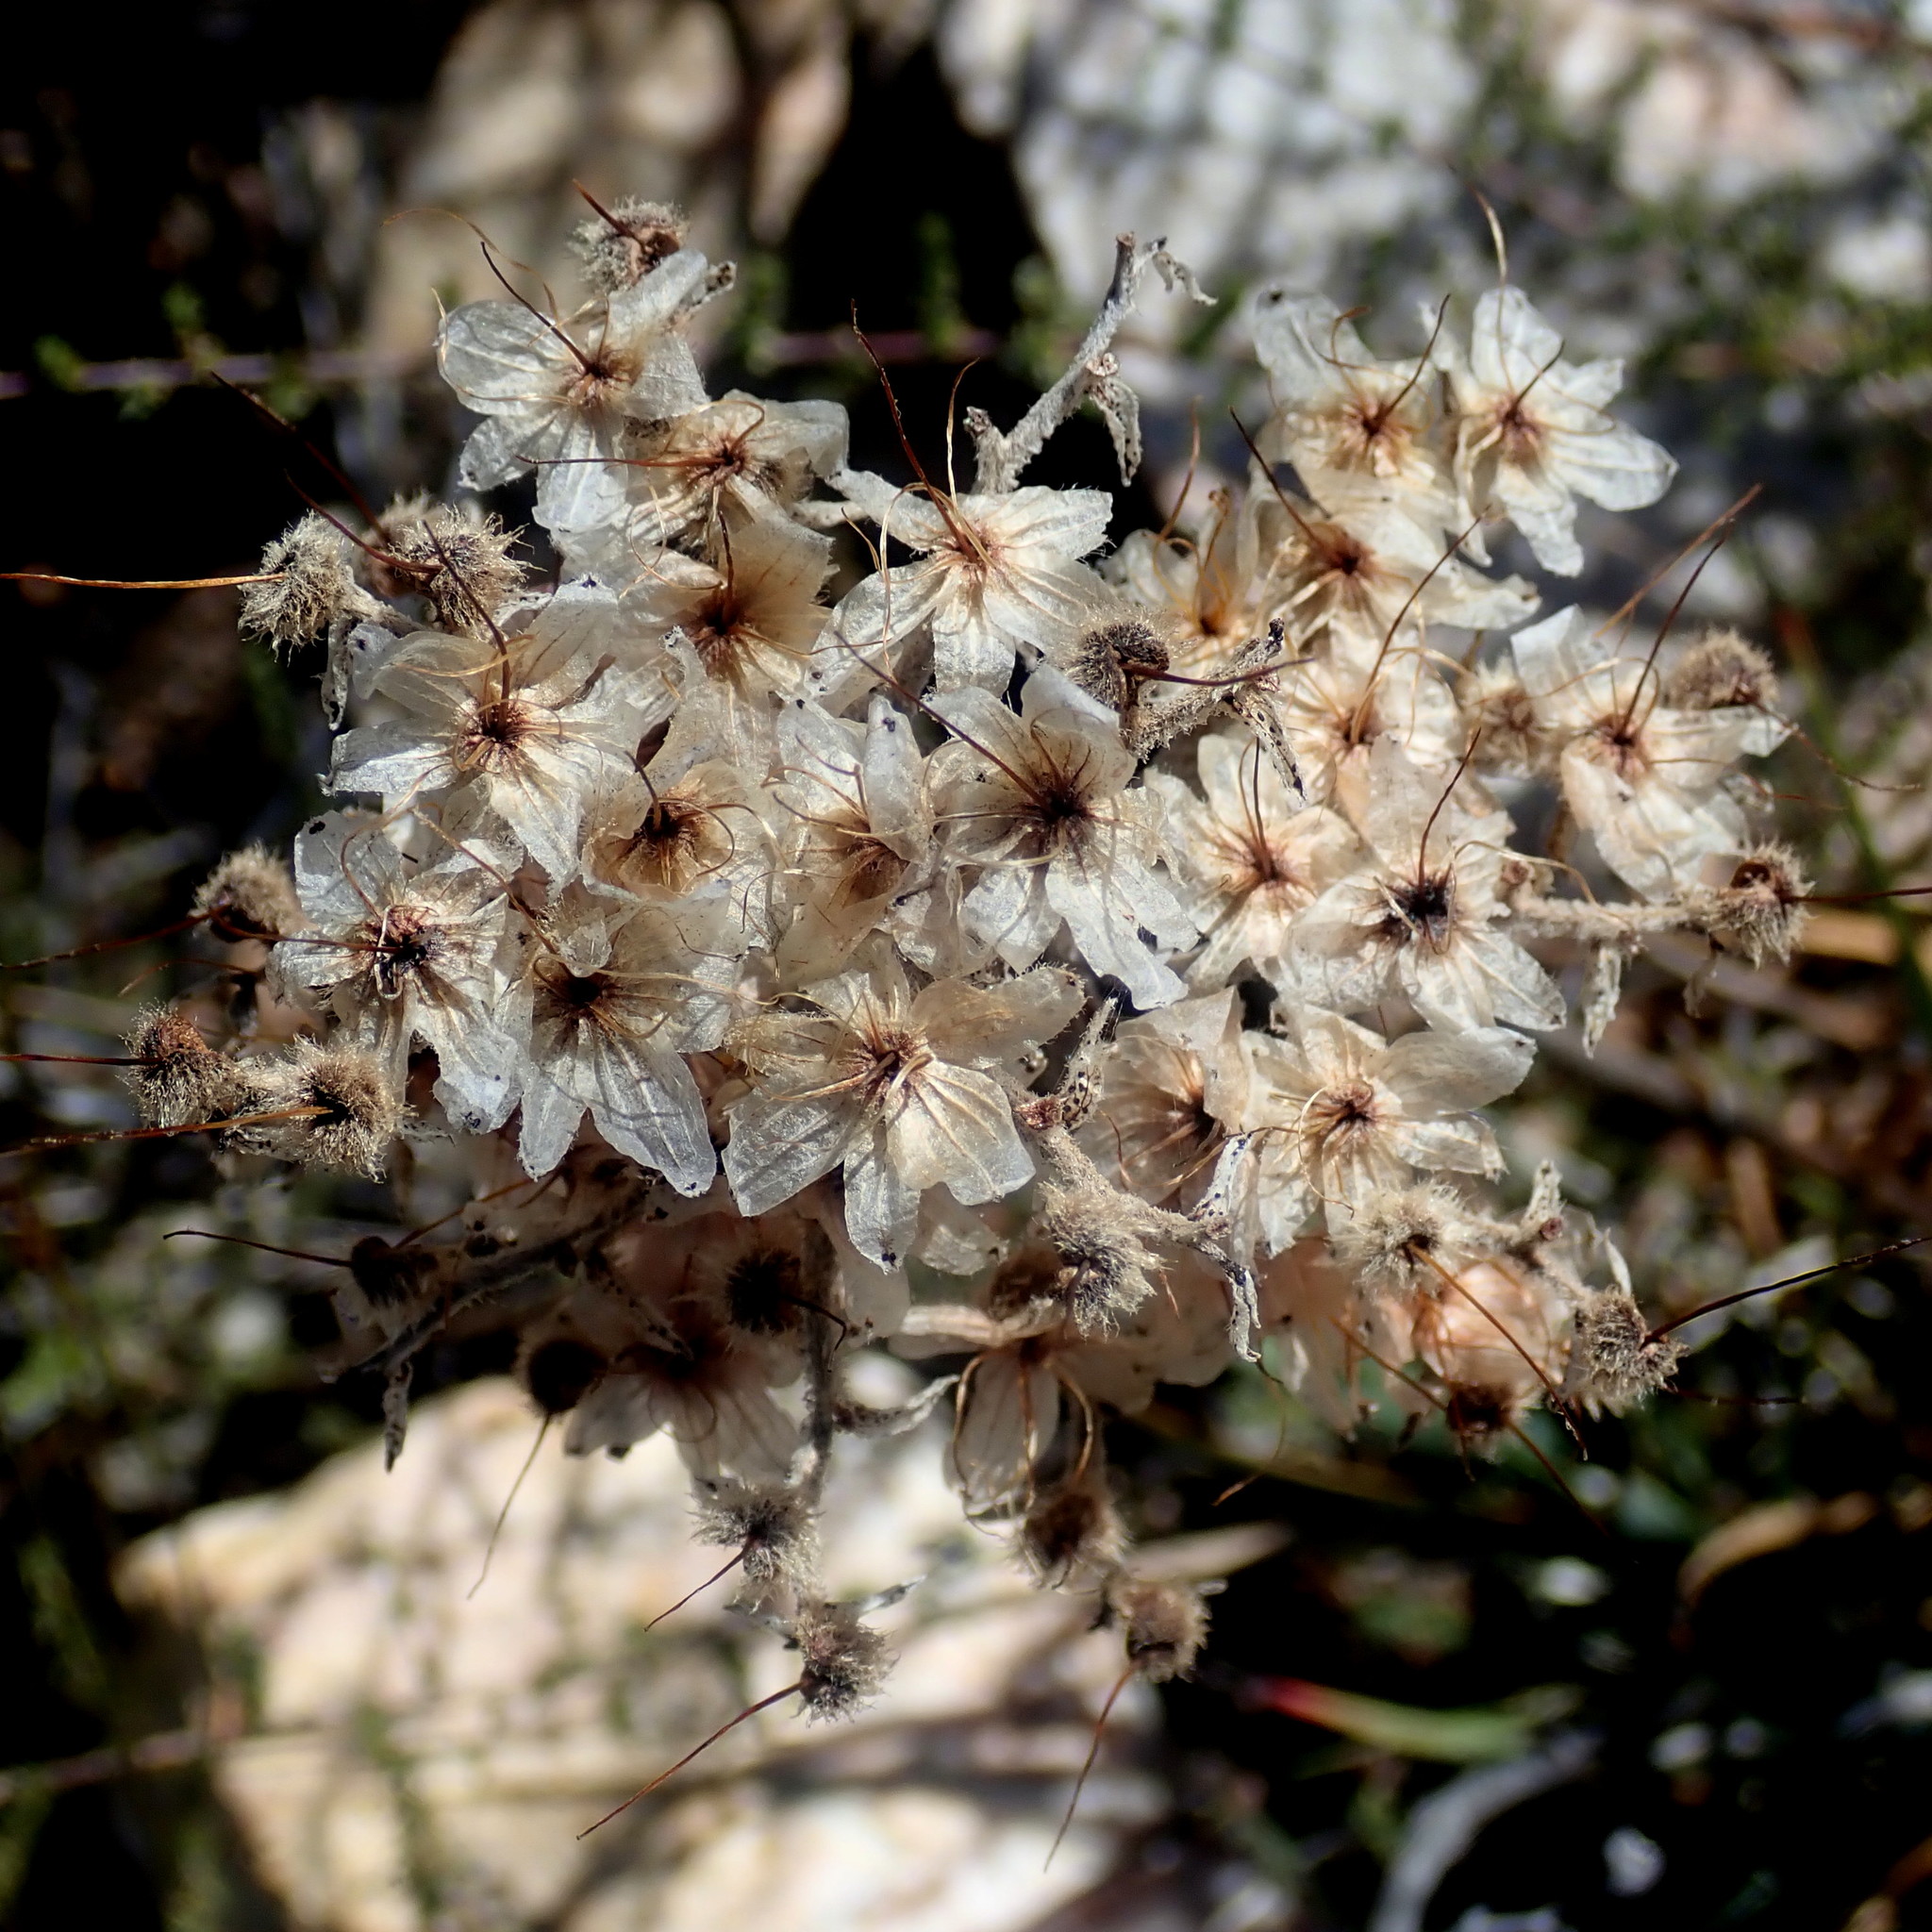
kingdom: Plantae
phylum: Tracheophyta
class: Liliopsida
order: Commelinales
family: Haemodoraceae
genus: Dilatris
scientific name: Dilatris ixioides
